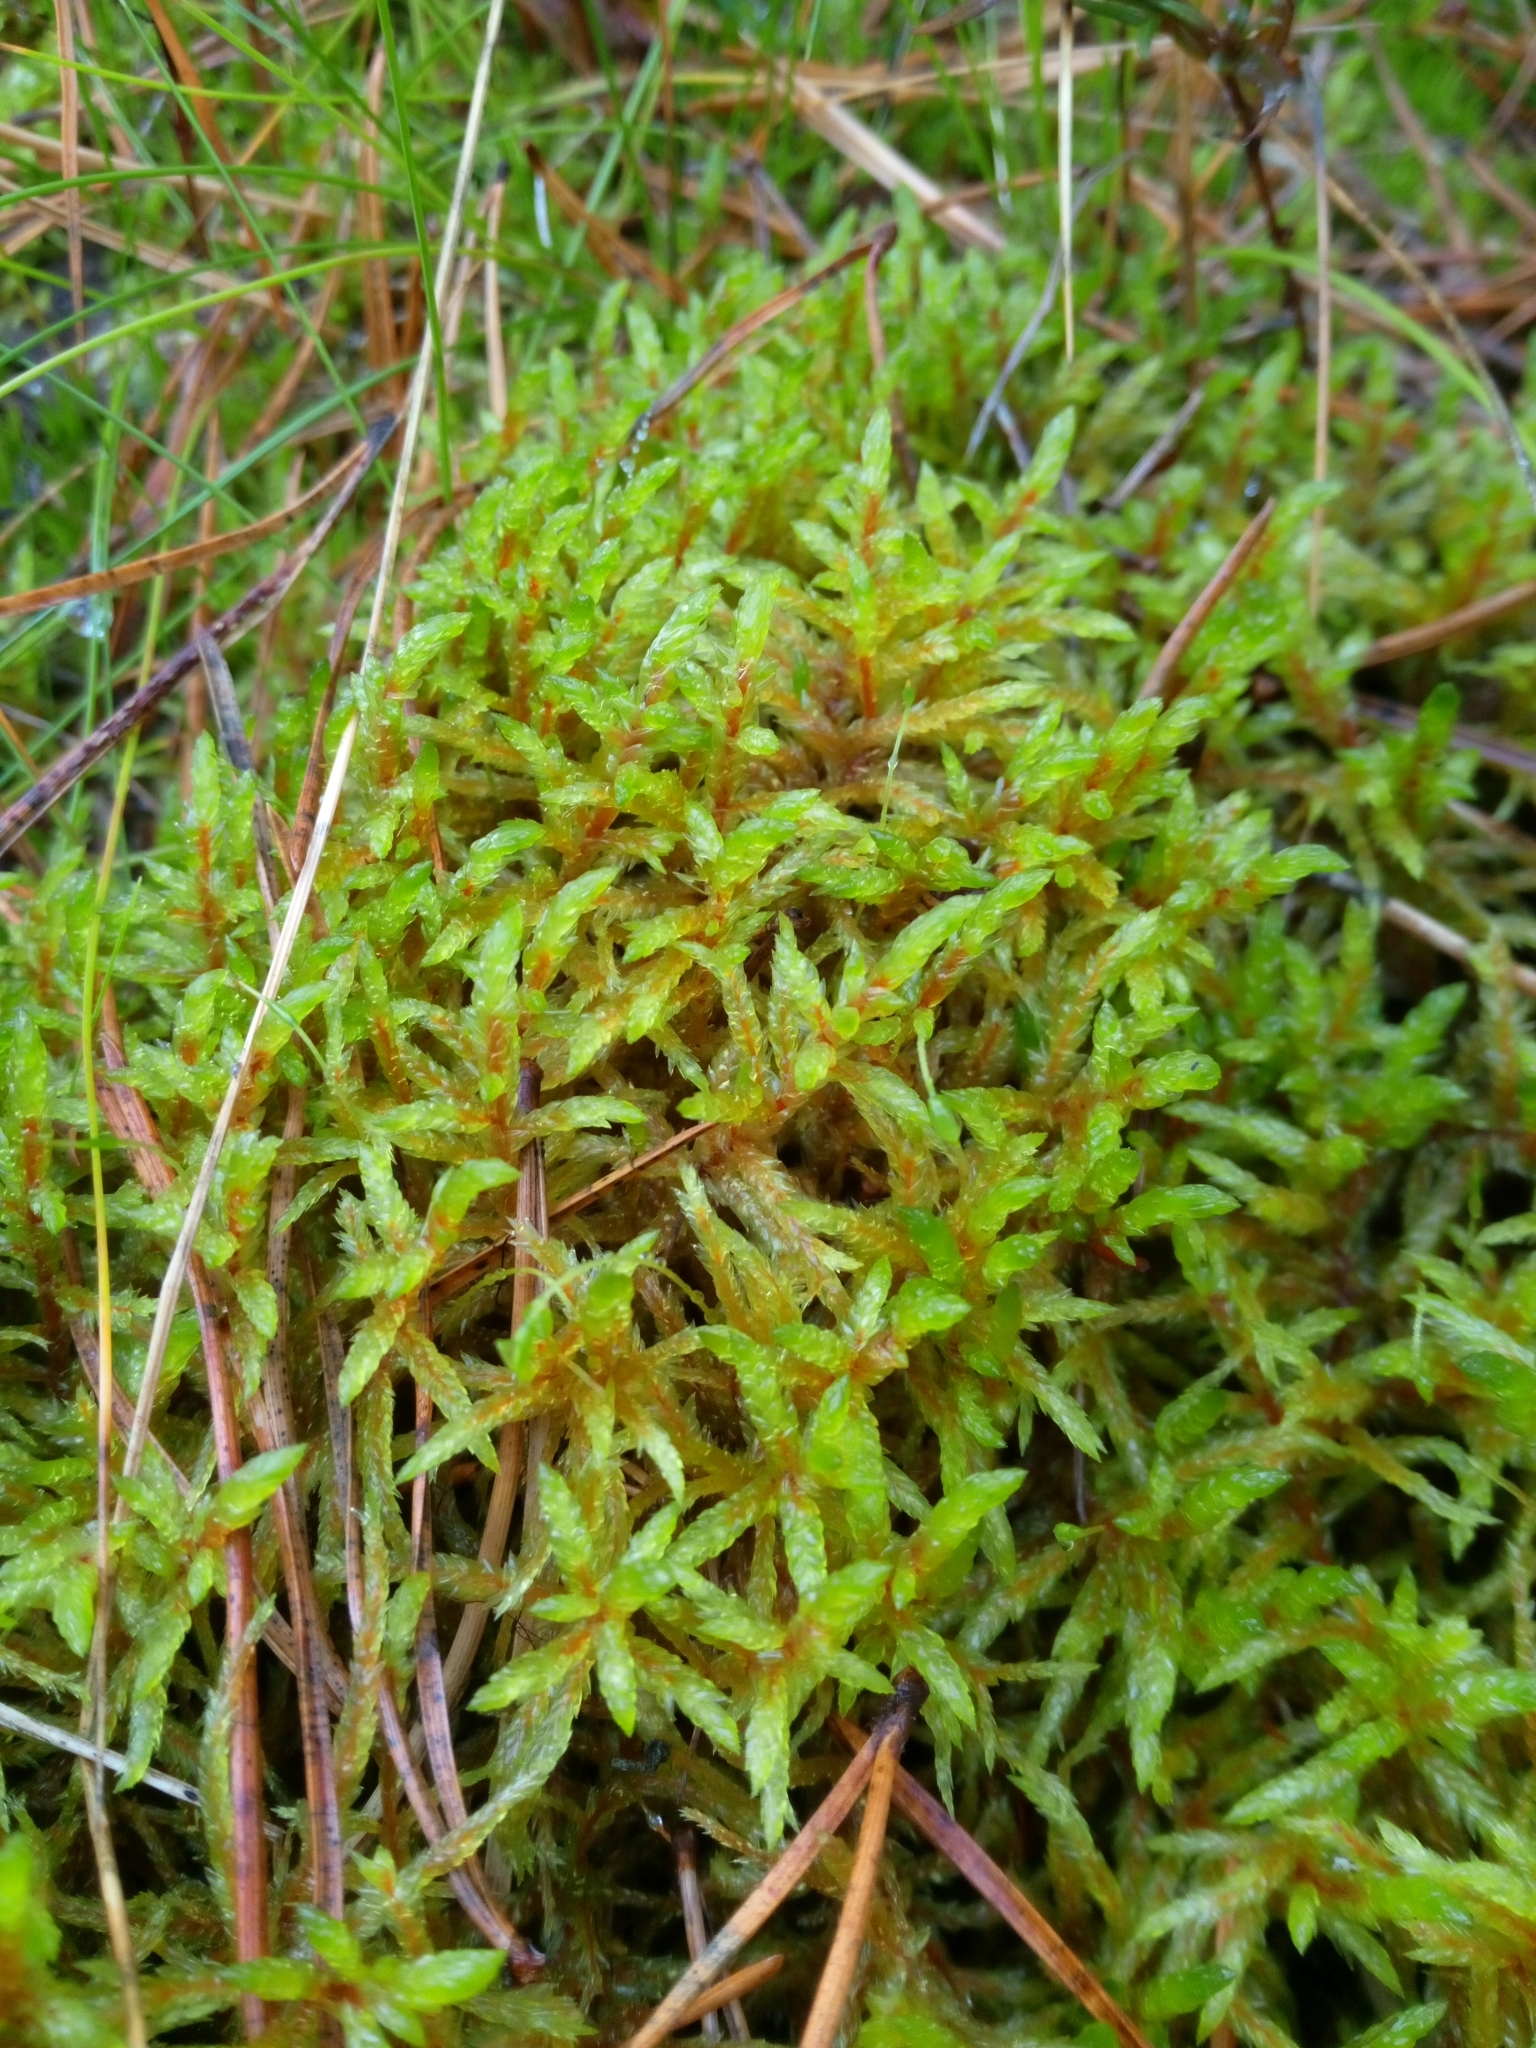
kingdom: Plantae
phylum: Bryophyta
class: Bryopsida
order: Hypnales
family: Hylocomiaceae
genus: Pleurozium
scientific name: Pleurozium schreberi
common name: Red-stemmed feather moss
